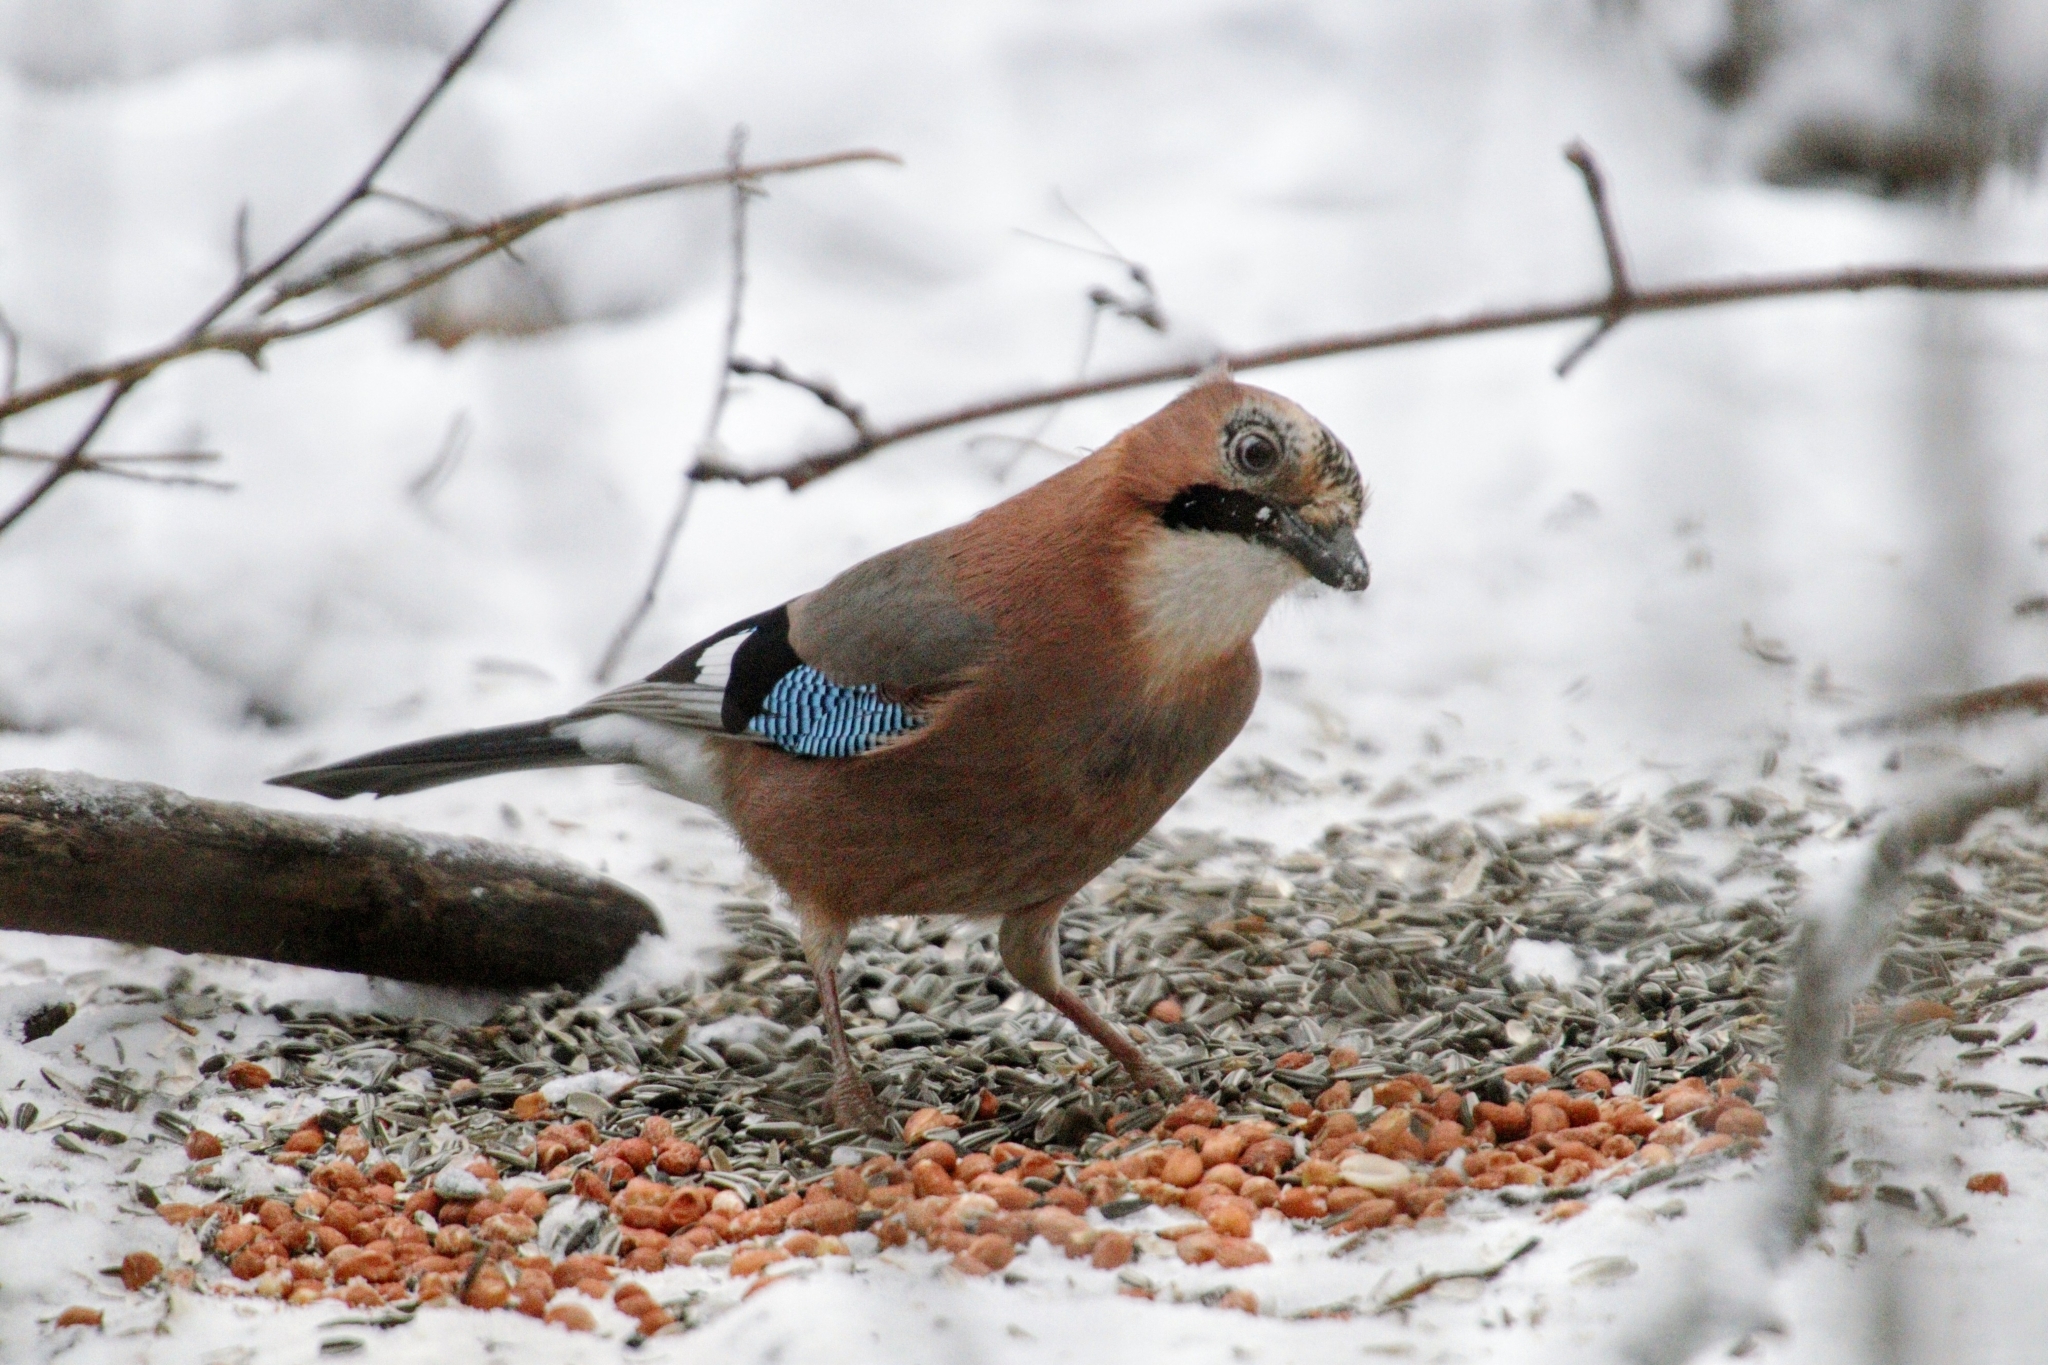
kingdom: Animalia
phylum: Chordata
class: Aves
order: Passeriformes
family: Corvidae
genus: Garrulus
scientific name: Garrulus glandarius
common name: Eurasian jay
